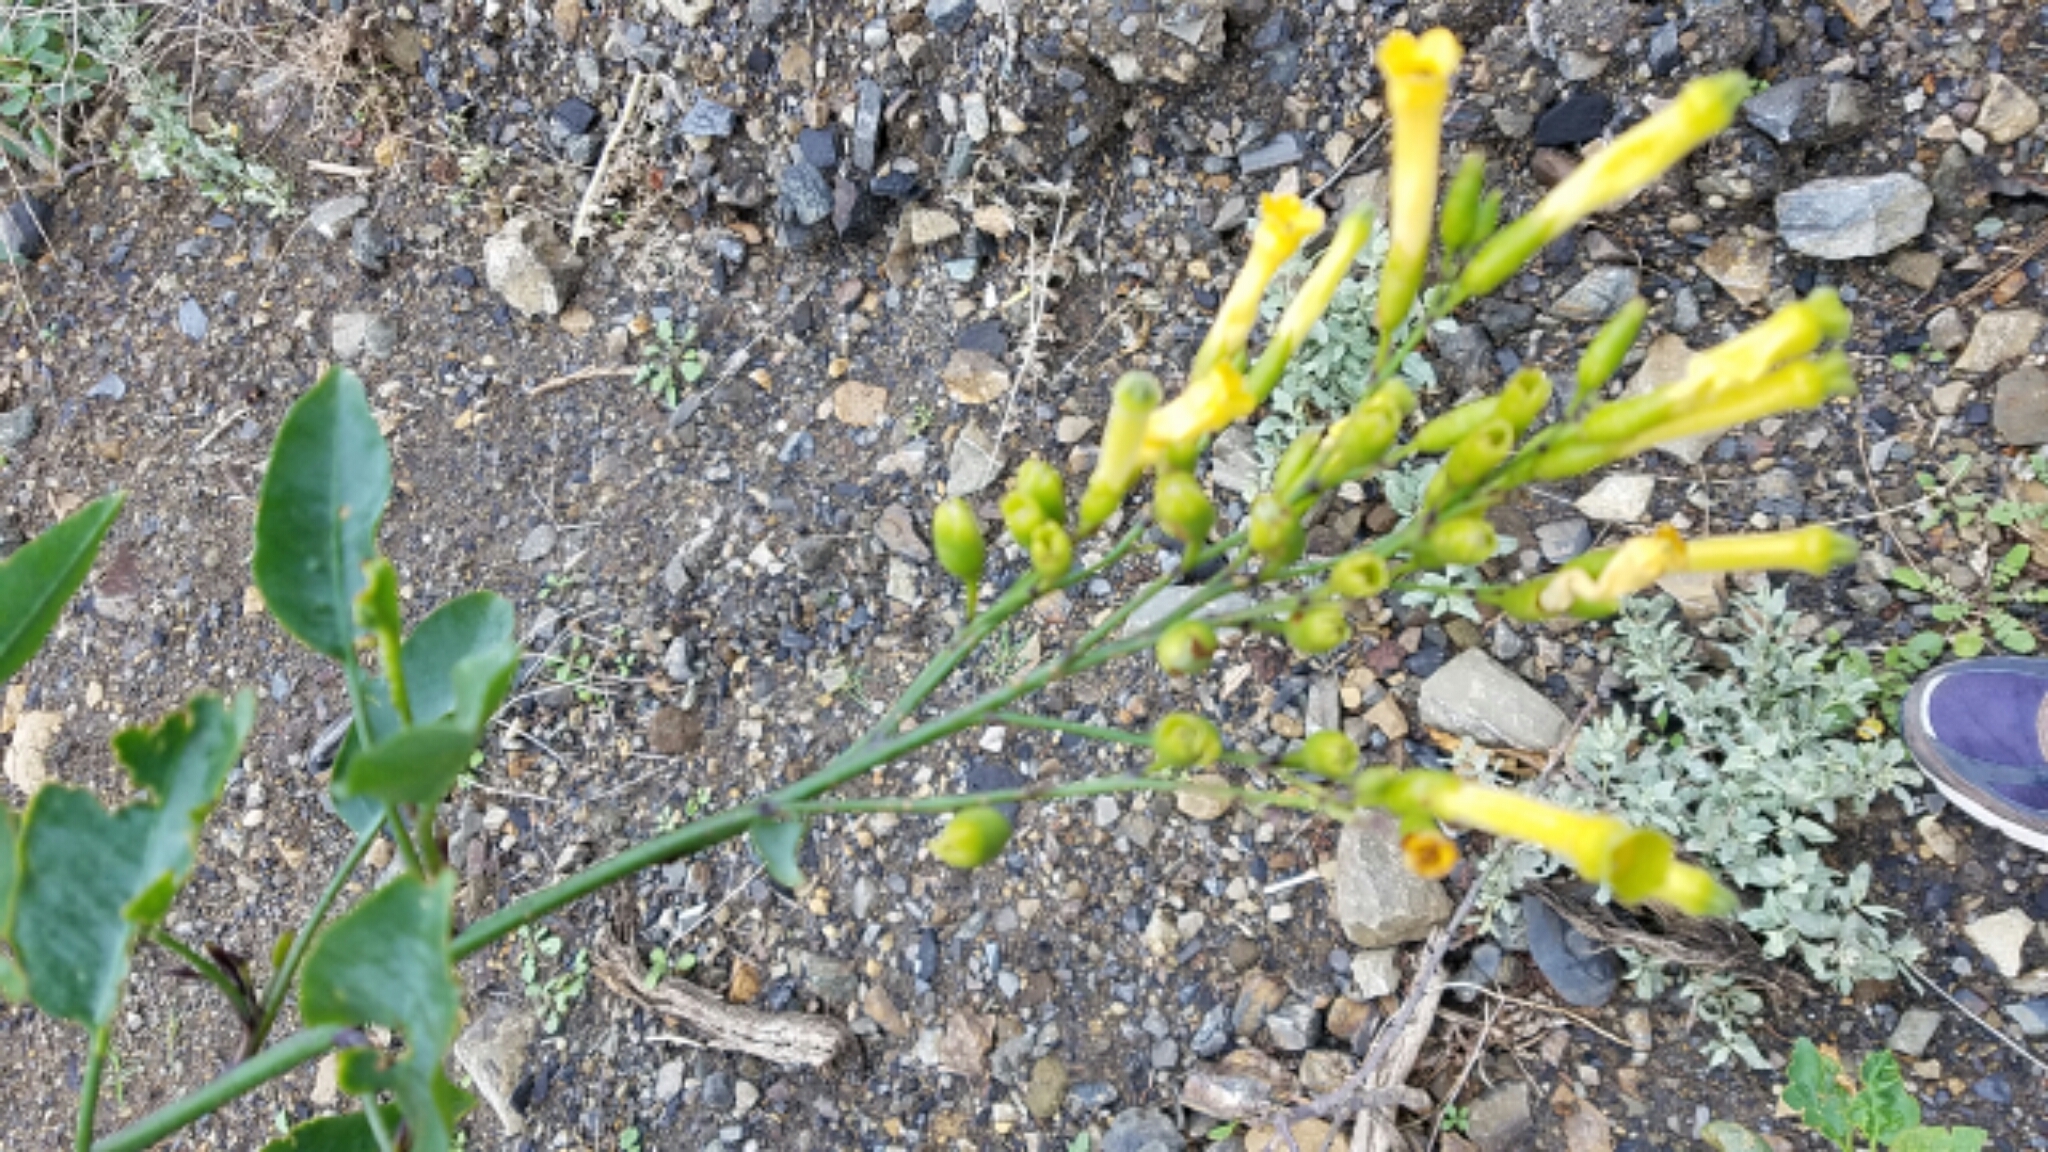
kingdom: Plantae
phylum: Tracheophyta
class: Magnoliopsida
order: Solanales
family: Solanaceae
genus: Nicotiana
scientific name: Nicotiana glauca
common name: Tree tobacco
